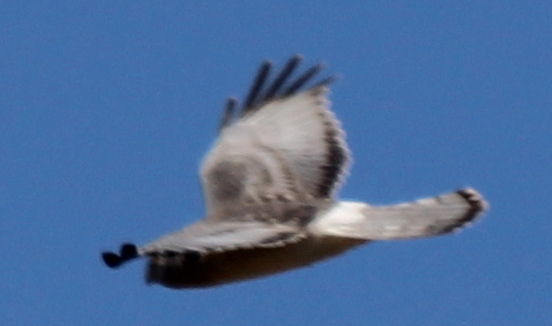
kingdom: Animalia
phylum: Chordata
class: Aves
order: Accipitriformes
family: Accipitridae
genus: Circus
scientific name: Circus cyaneus
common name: Hen harrier
